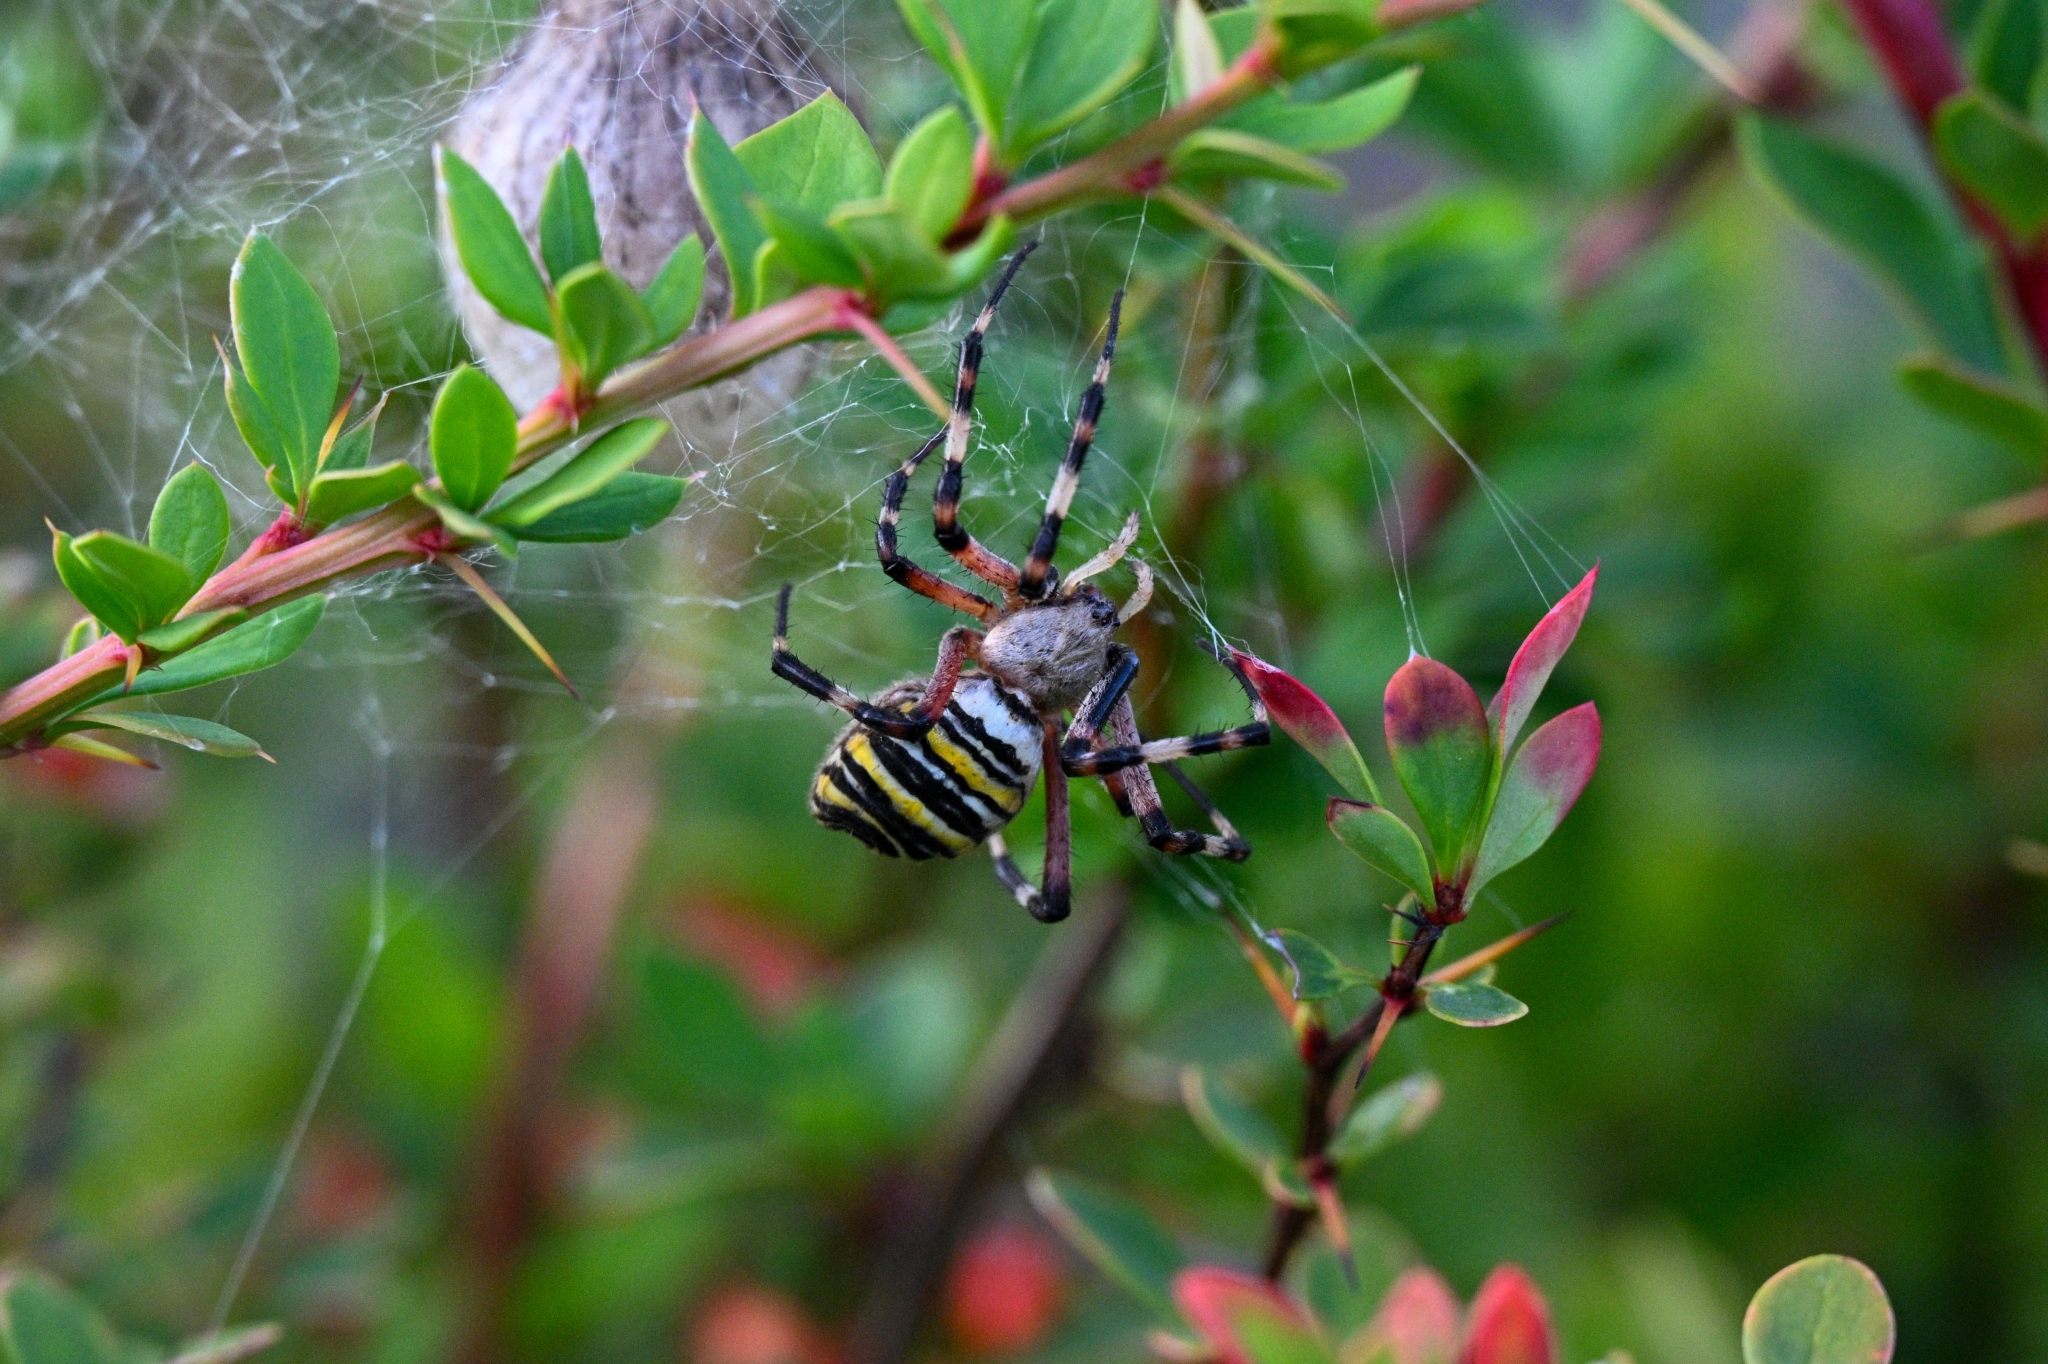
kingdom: Animalia
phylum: Arthropoda
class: Arachnida
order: Araneae
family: Araneidae
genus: Argiope
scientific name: Argiope bruennichi
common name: Wasp spider
